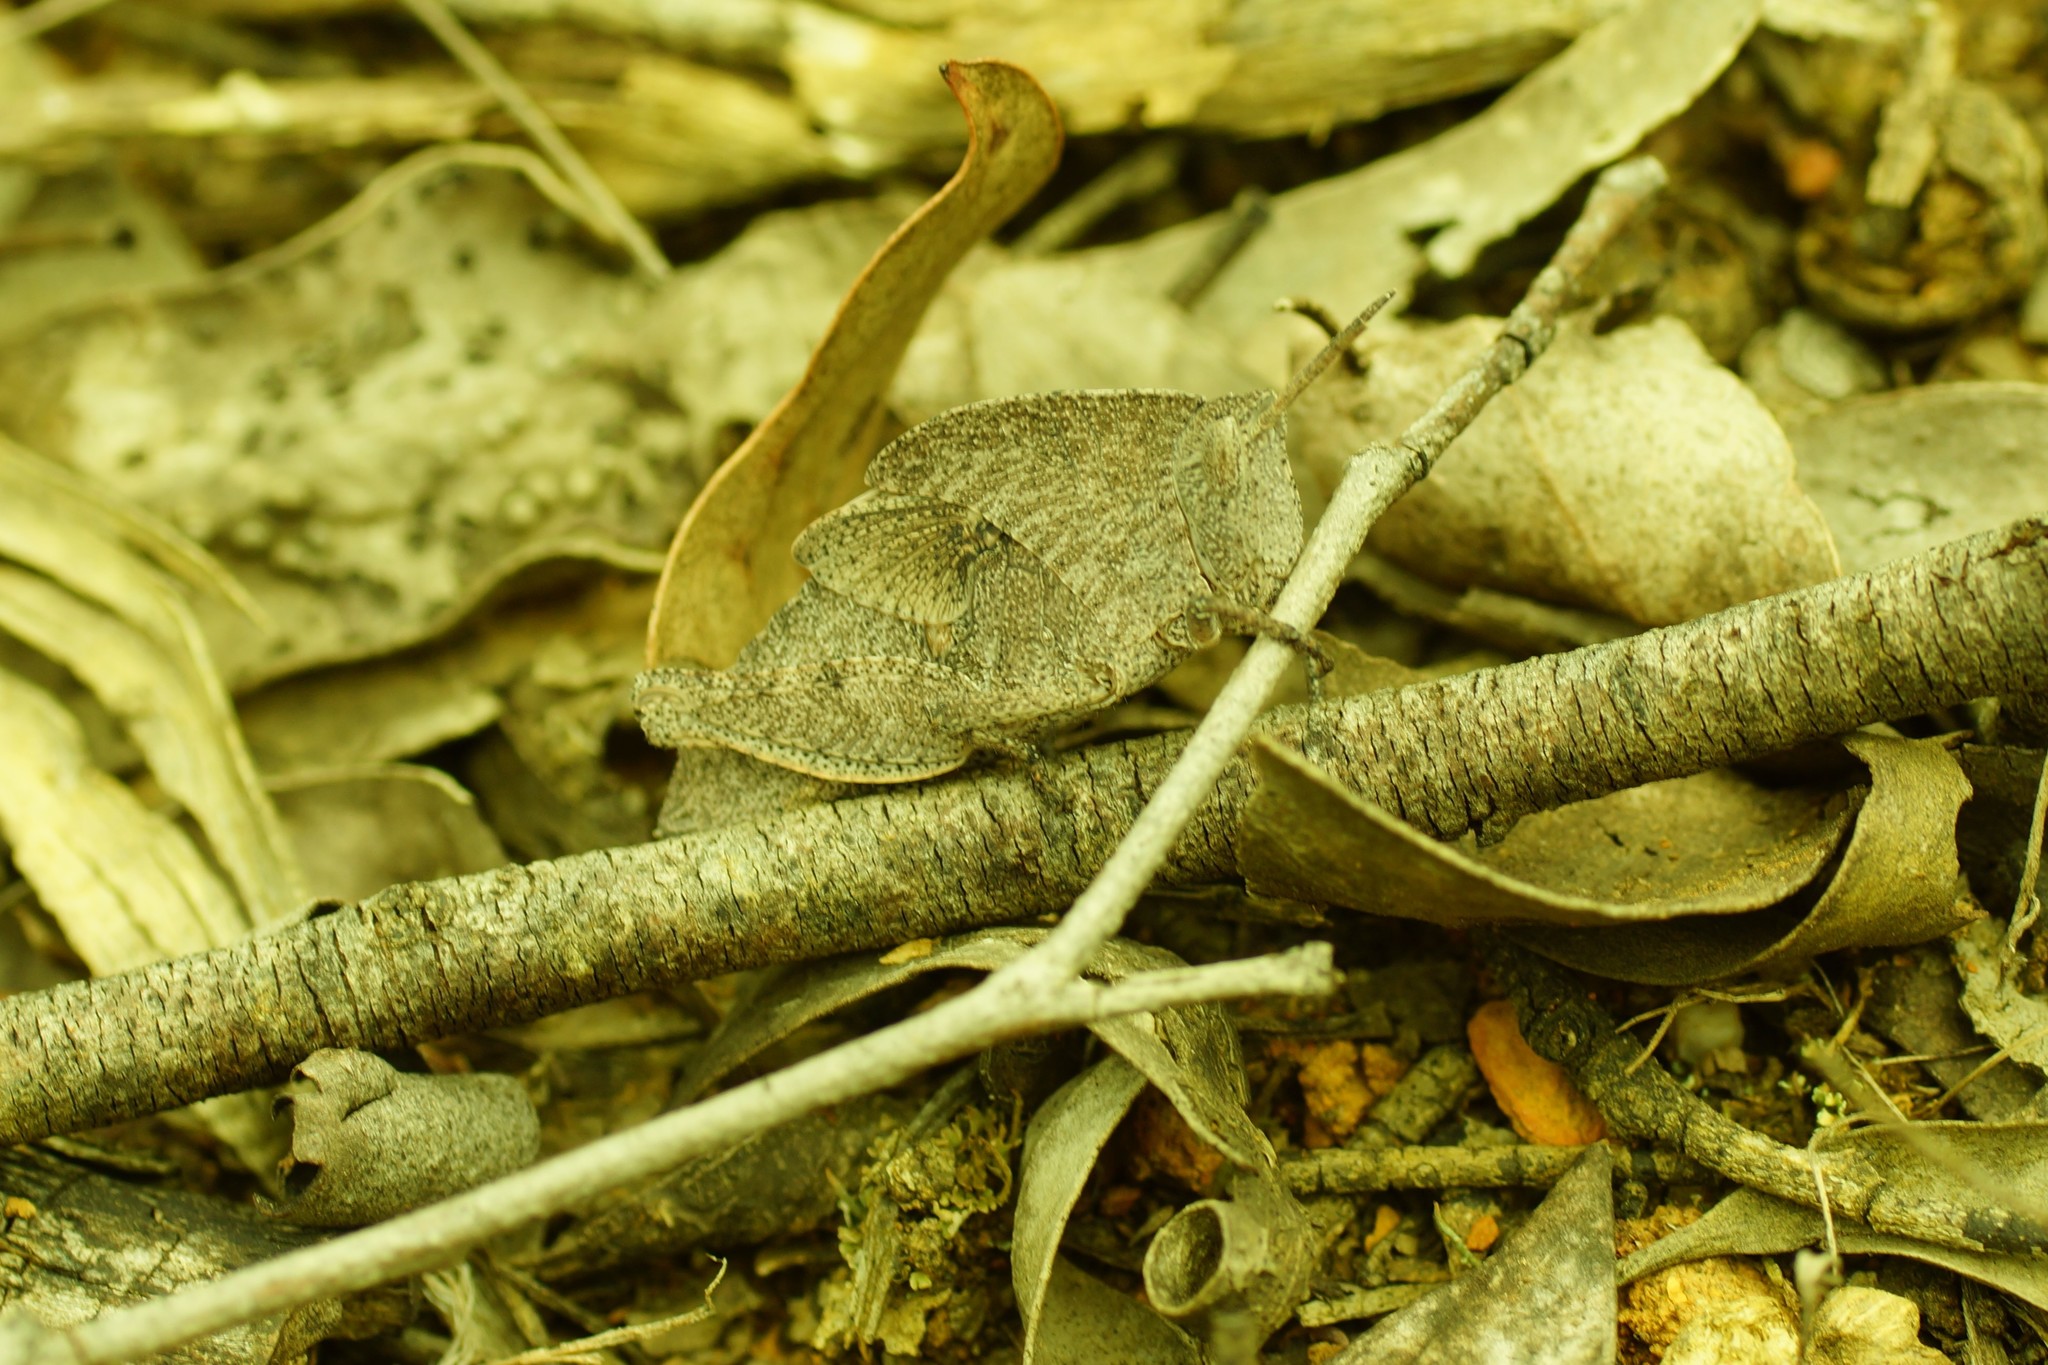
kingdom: Animalia
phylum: Arthropoda
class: Insecta
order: Orthoptera
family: Acrididae
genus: Goniaea
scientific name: Goniaea australasiae
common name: Gumleaf grasshopper
